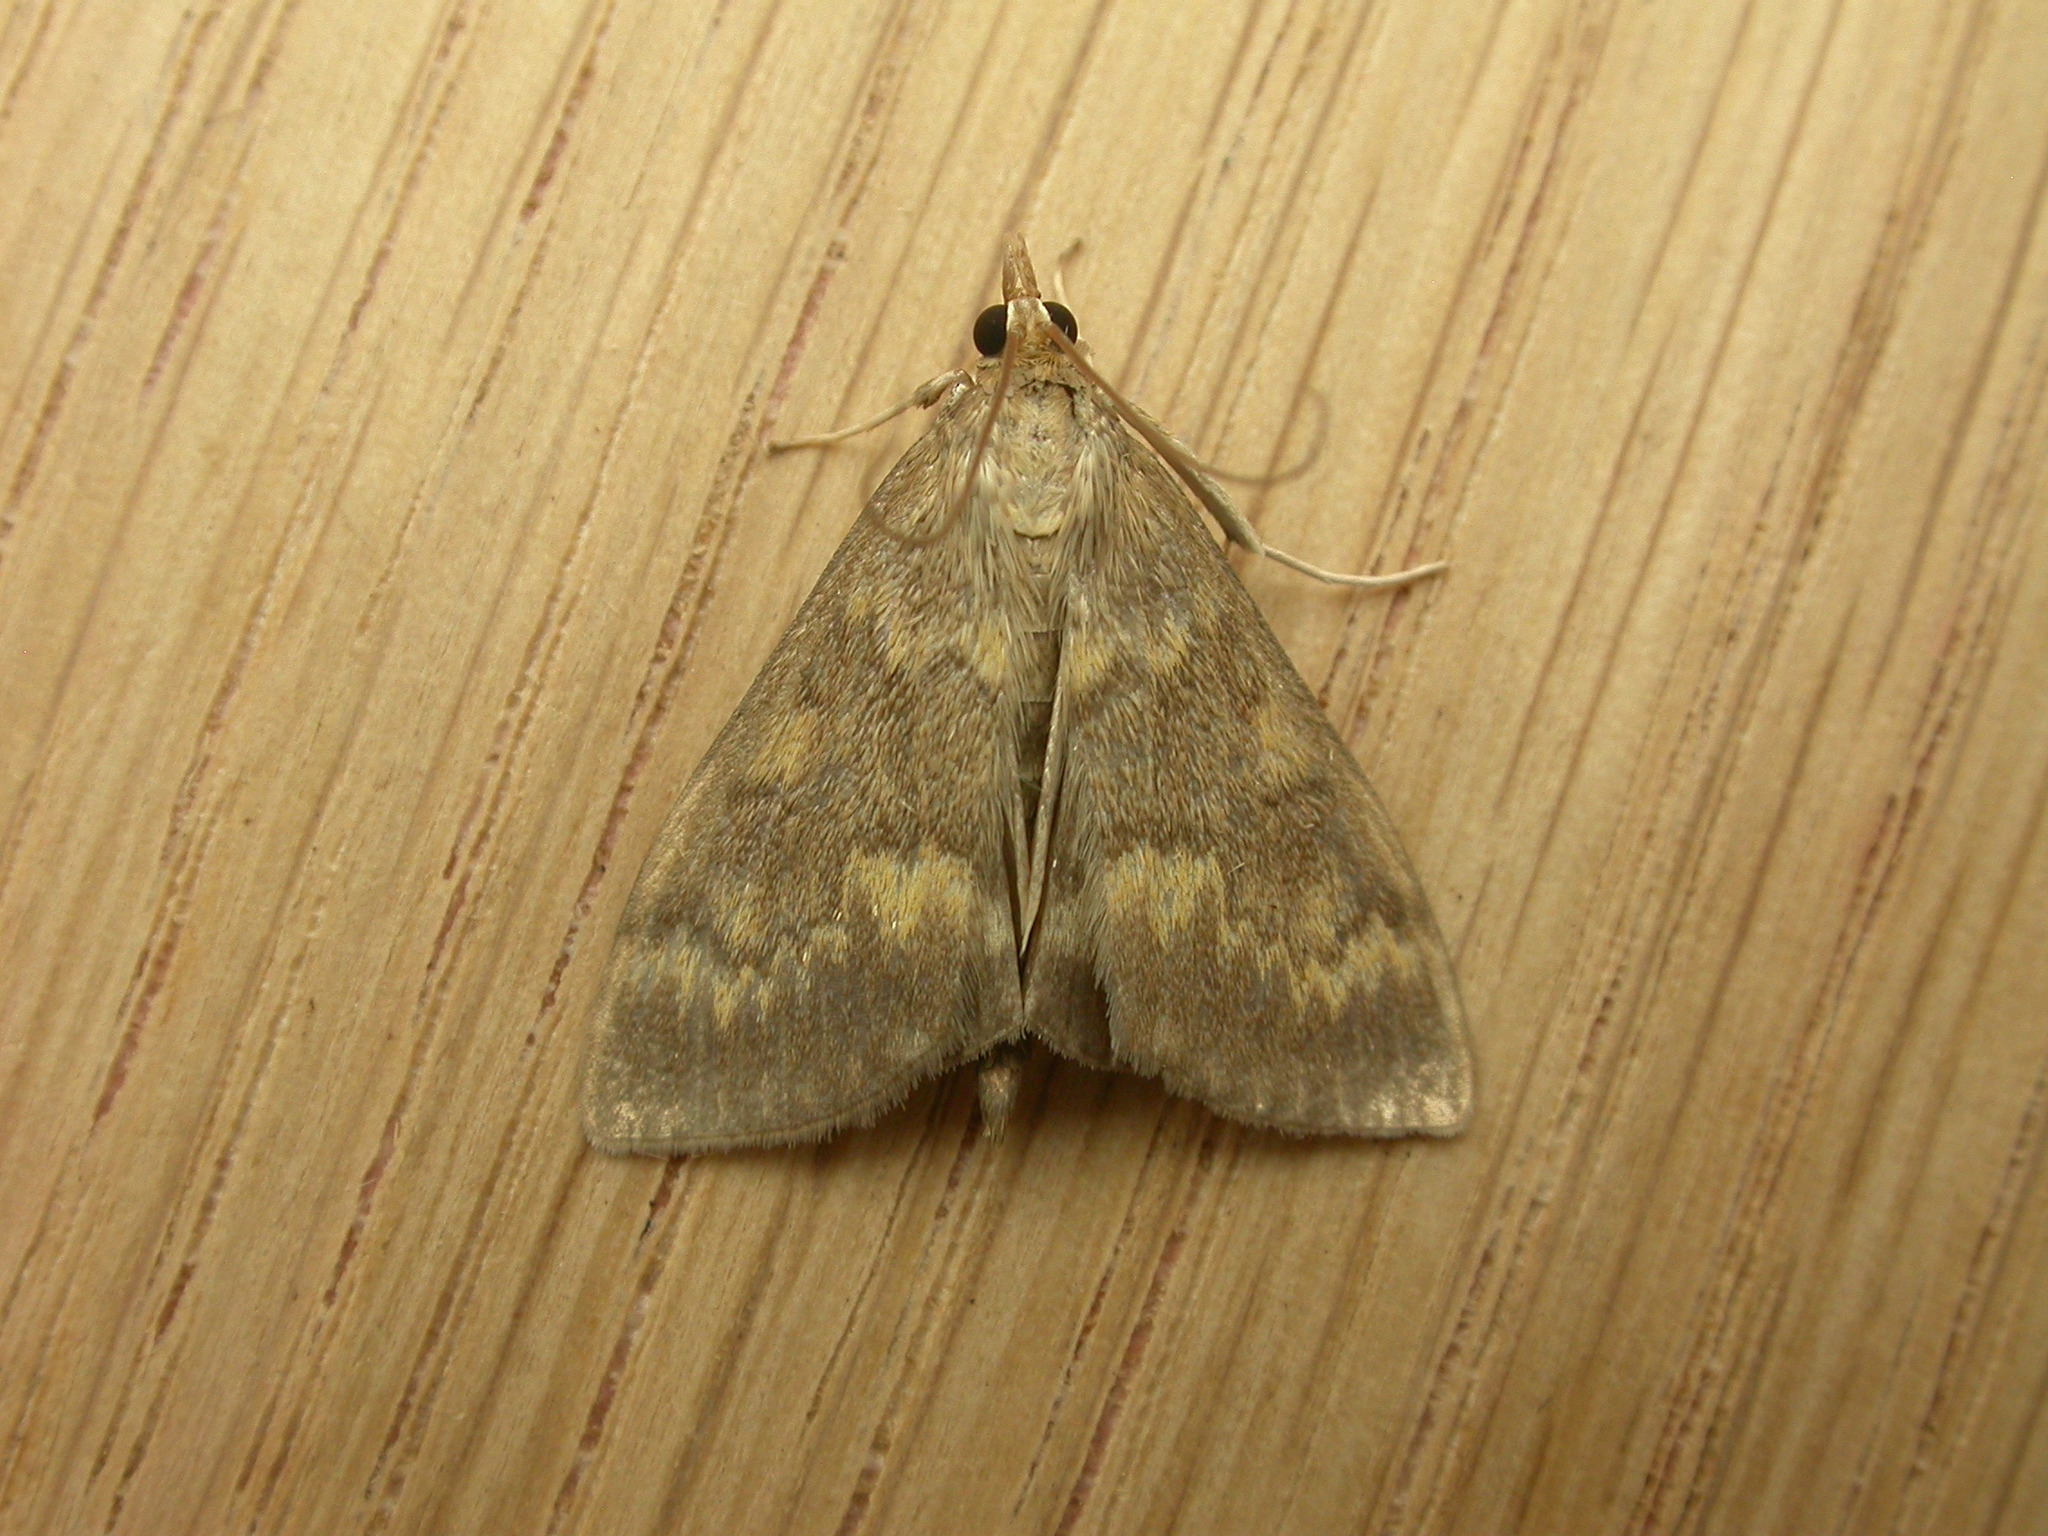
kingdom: Animalia
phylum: Arthropoda
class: Insecta
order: Lepidoptera
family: Crambidae
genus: Ostrinia
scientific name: Ostrinia nubilalis
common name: European corn borer
